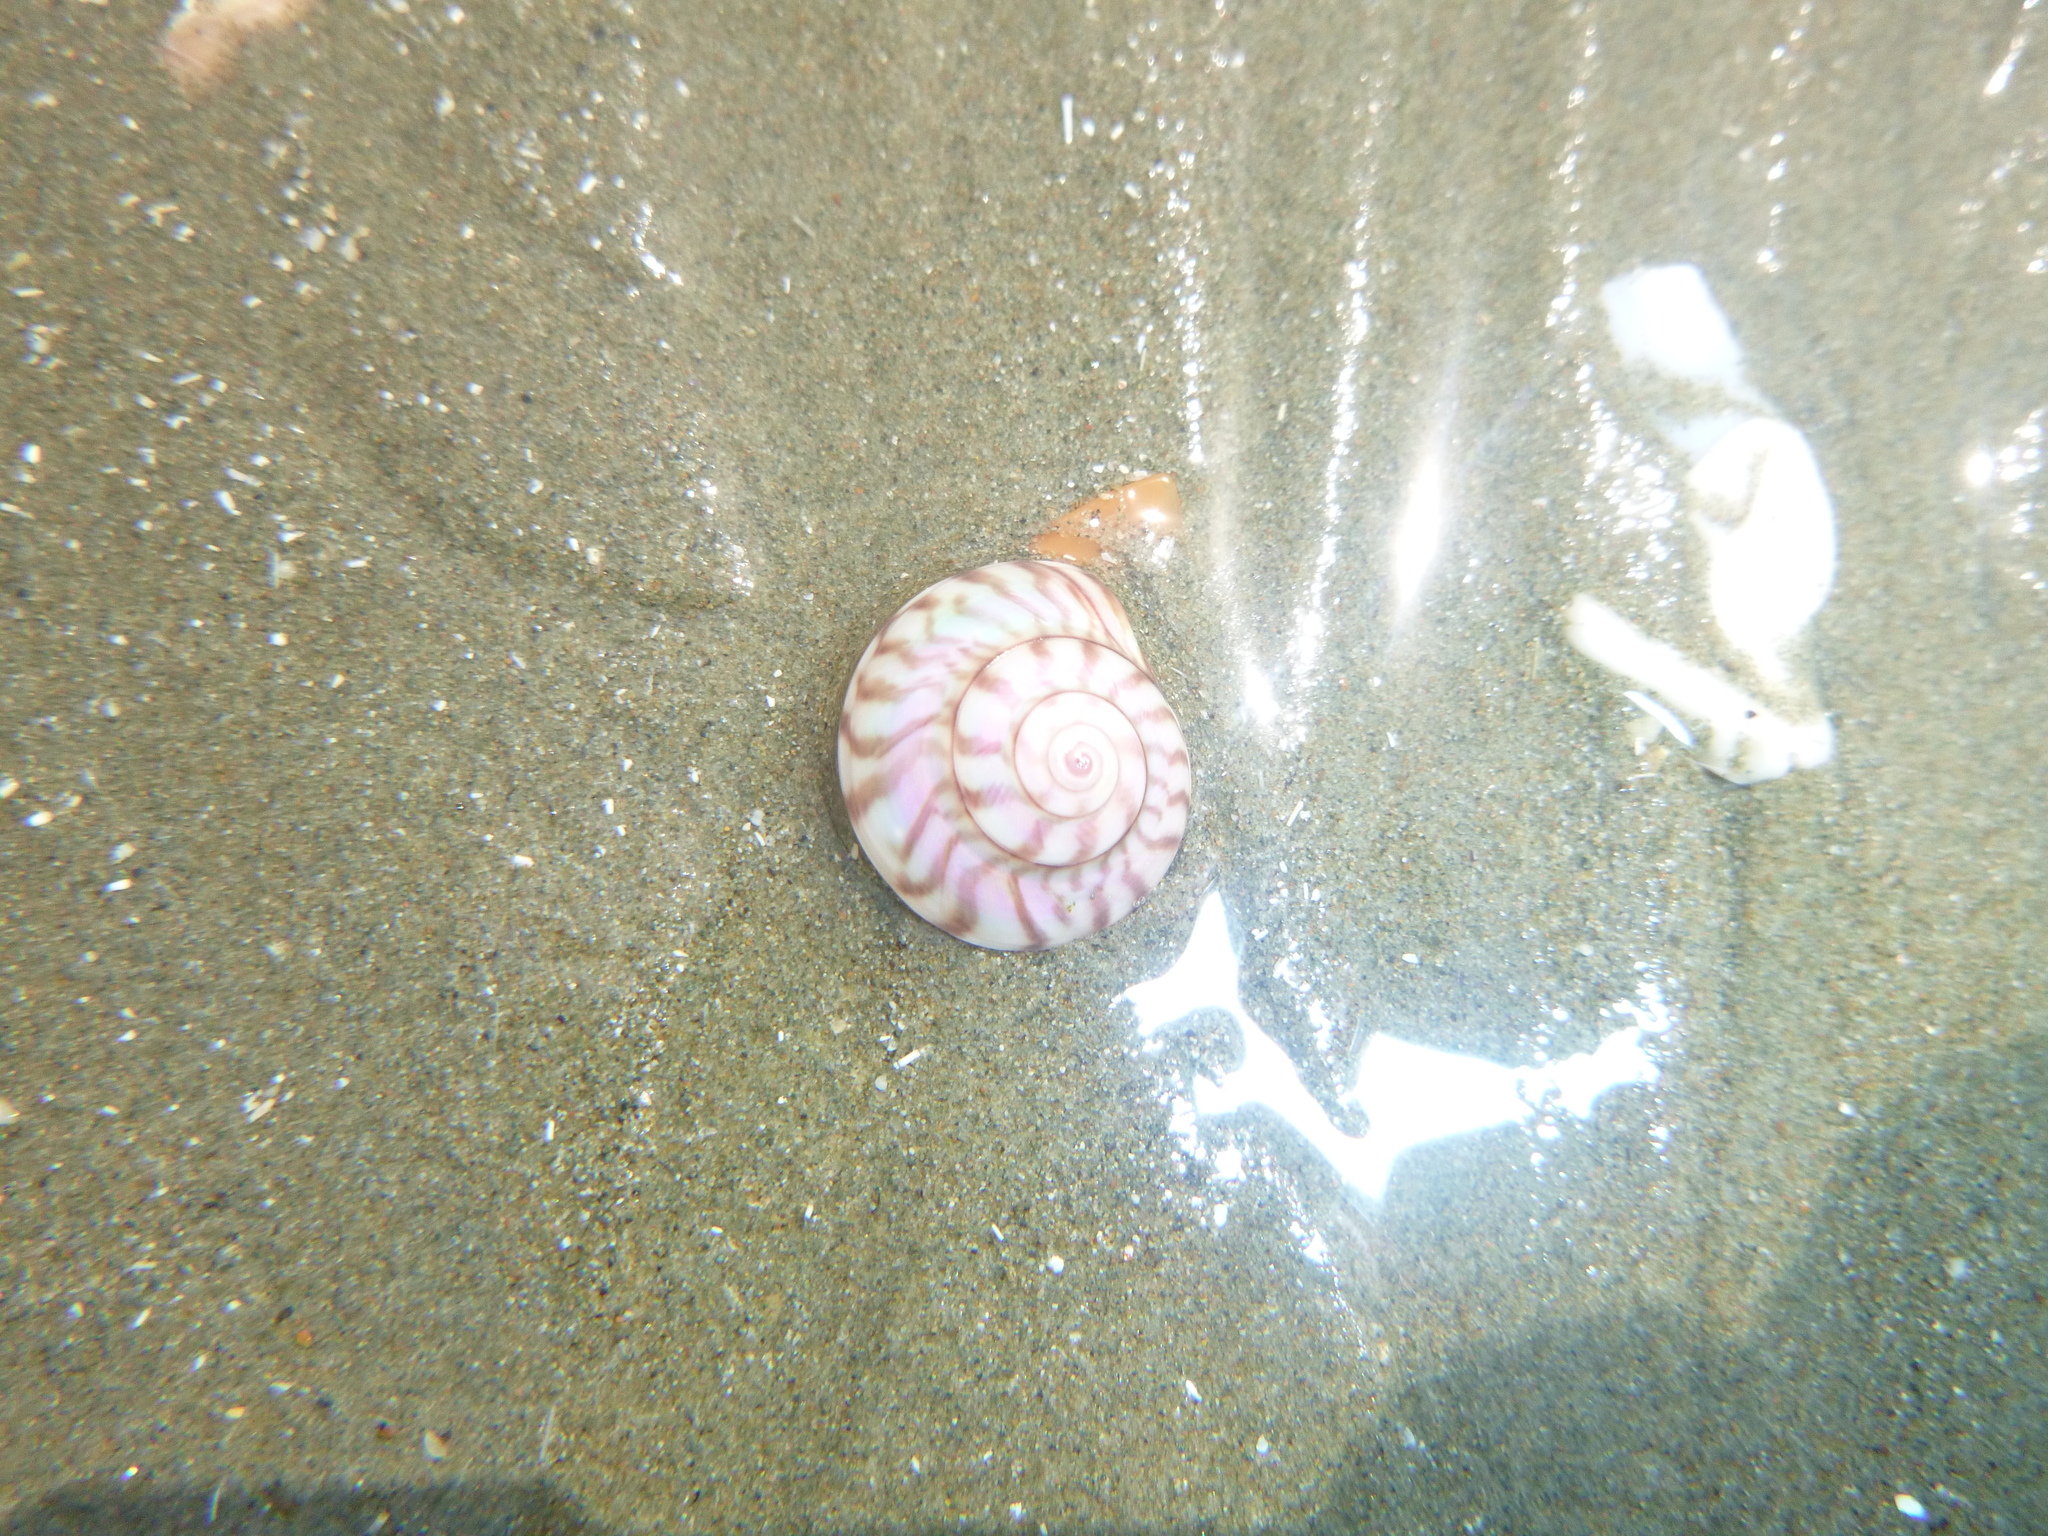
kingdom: Animalia
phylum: Mollusca
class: Gastropoda
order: Trochida
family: Trochidae
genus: Zethalia
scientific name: Zethalia zelandica
